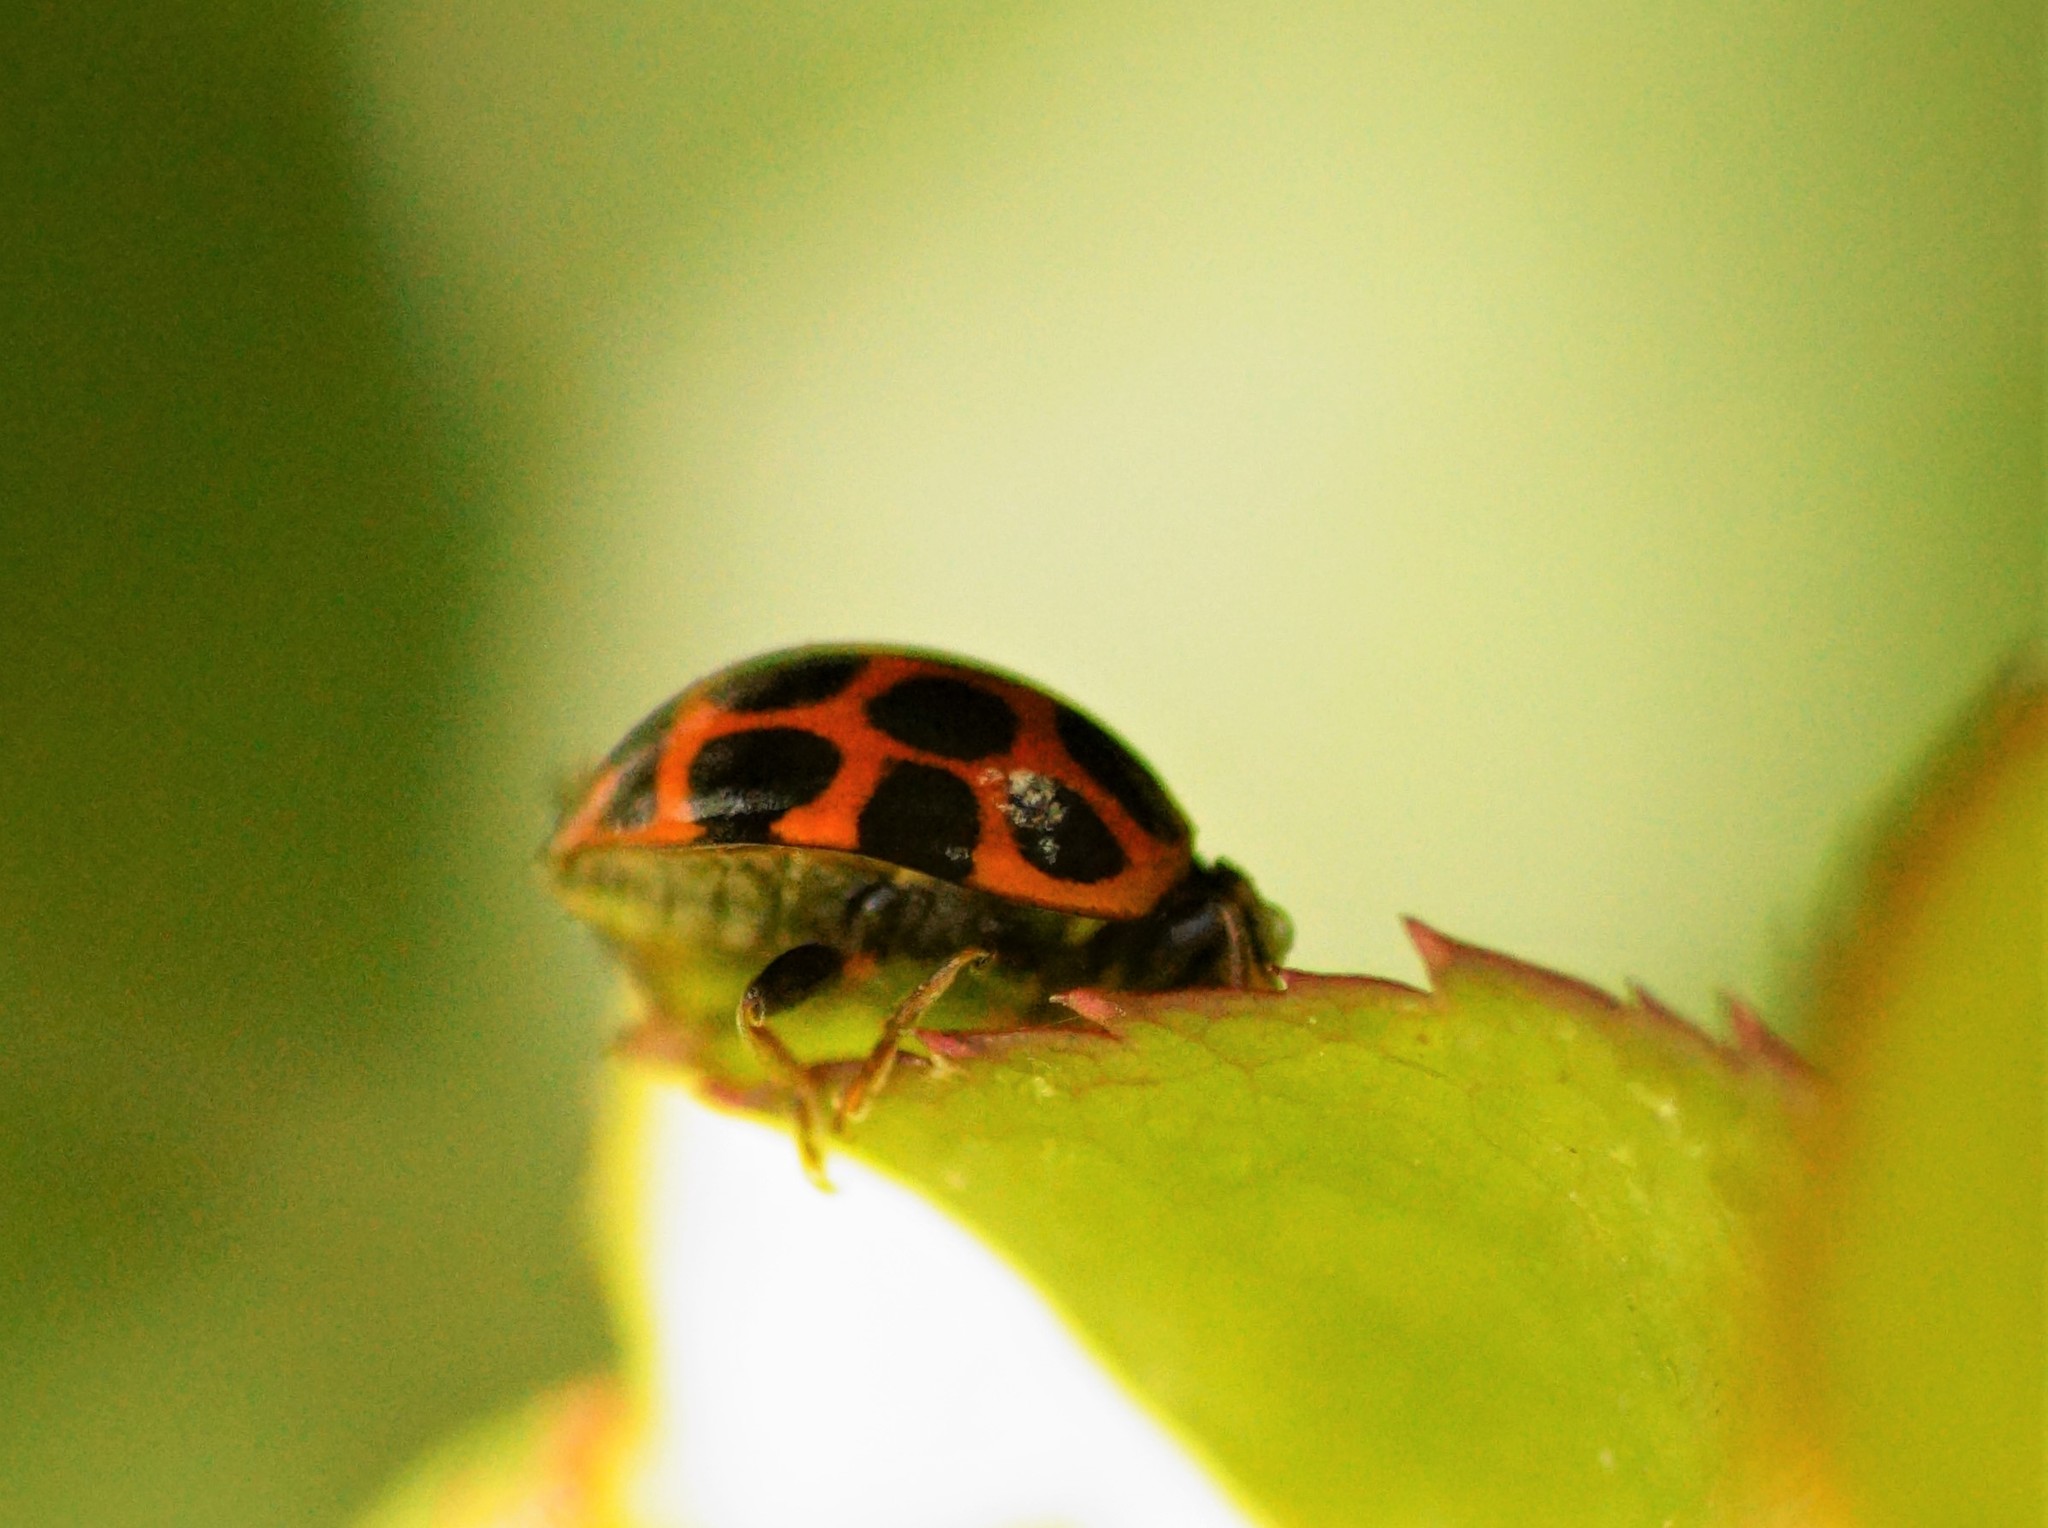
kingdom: Animalia
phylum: Arthropoda
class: Insecta
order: Coleoptera
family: Coccinellidae
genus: Harmonia
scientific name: Harmonia conformis
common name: Common spotted ladybird beetle
